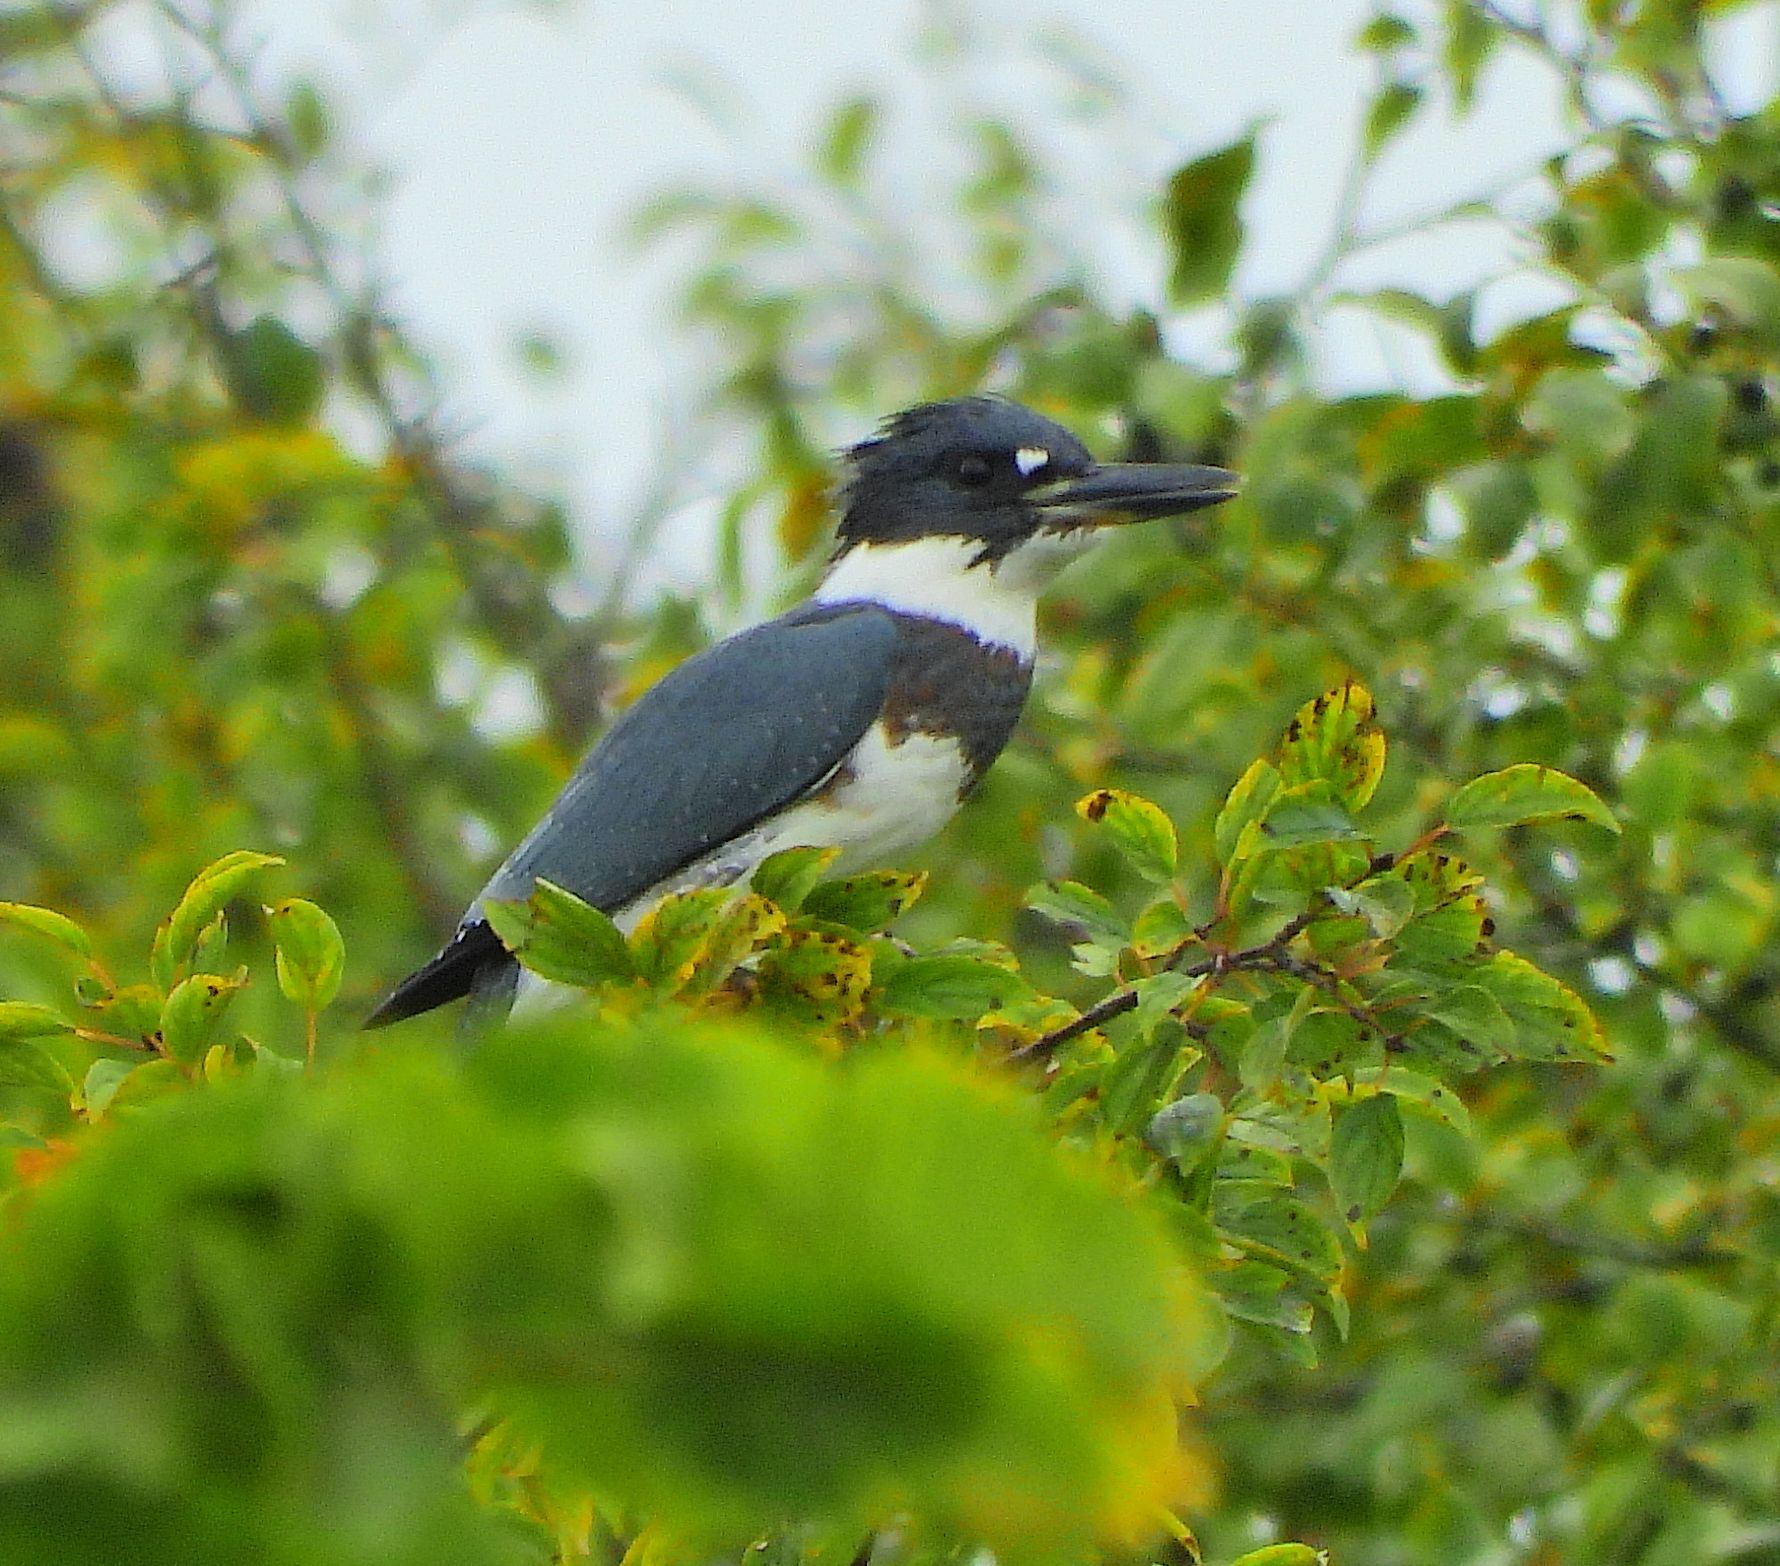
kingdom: Animalia
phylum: Chordata
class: Aves
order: Coraciiformes
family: Alcedinidae
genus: Megaceryle
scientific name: Megaceryle alcyon
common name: Belted kingfisher
